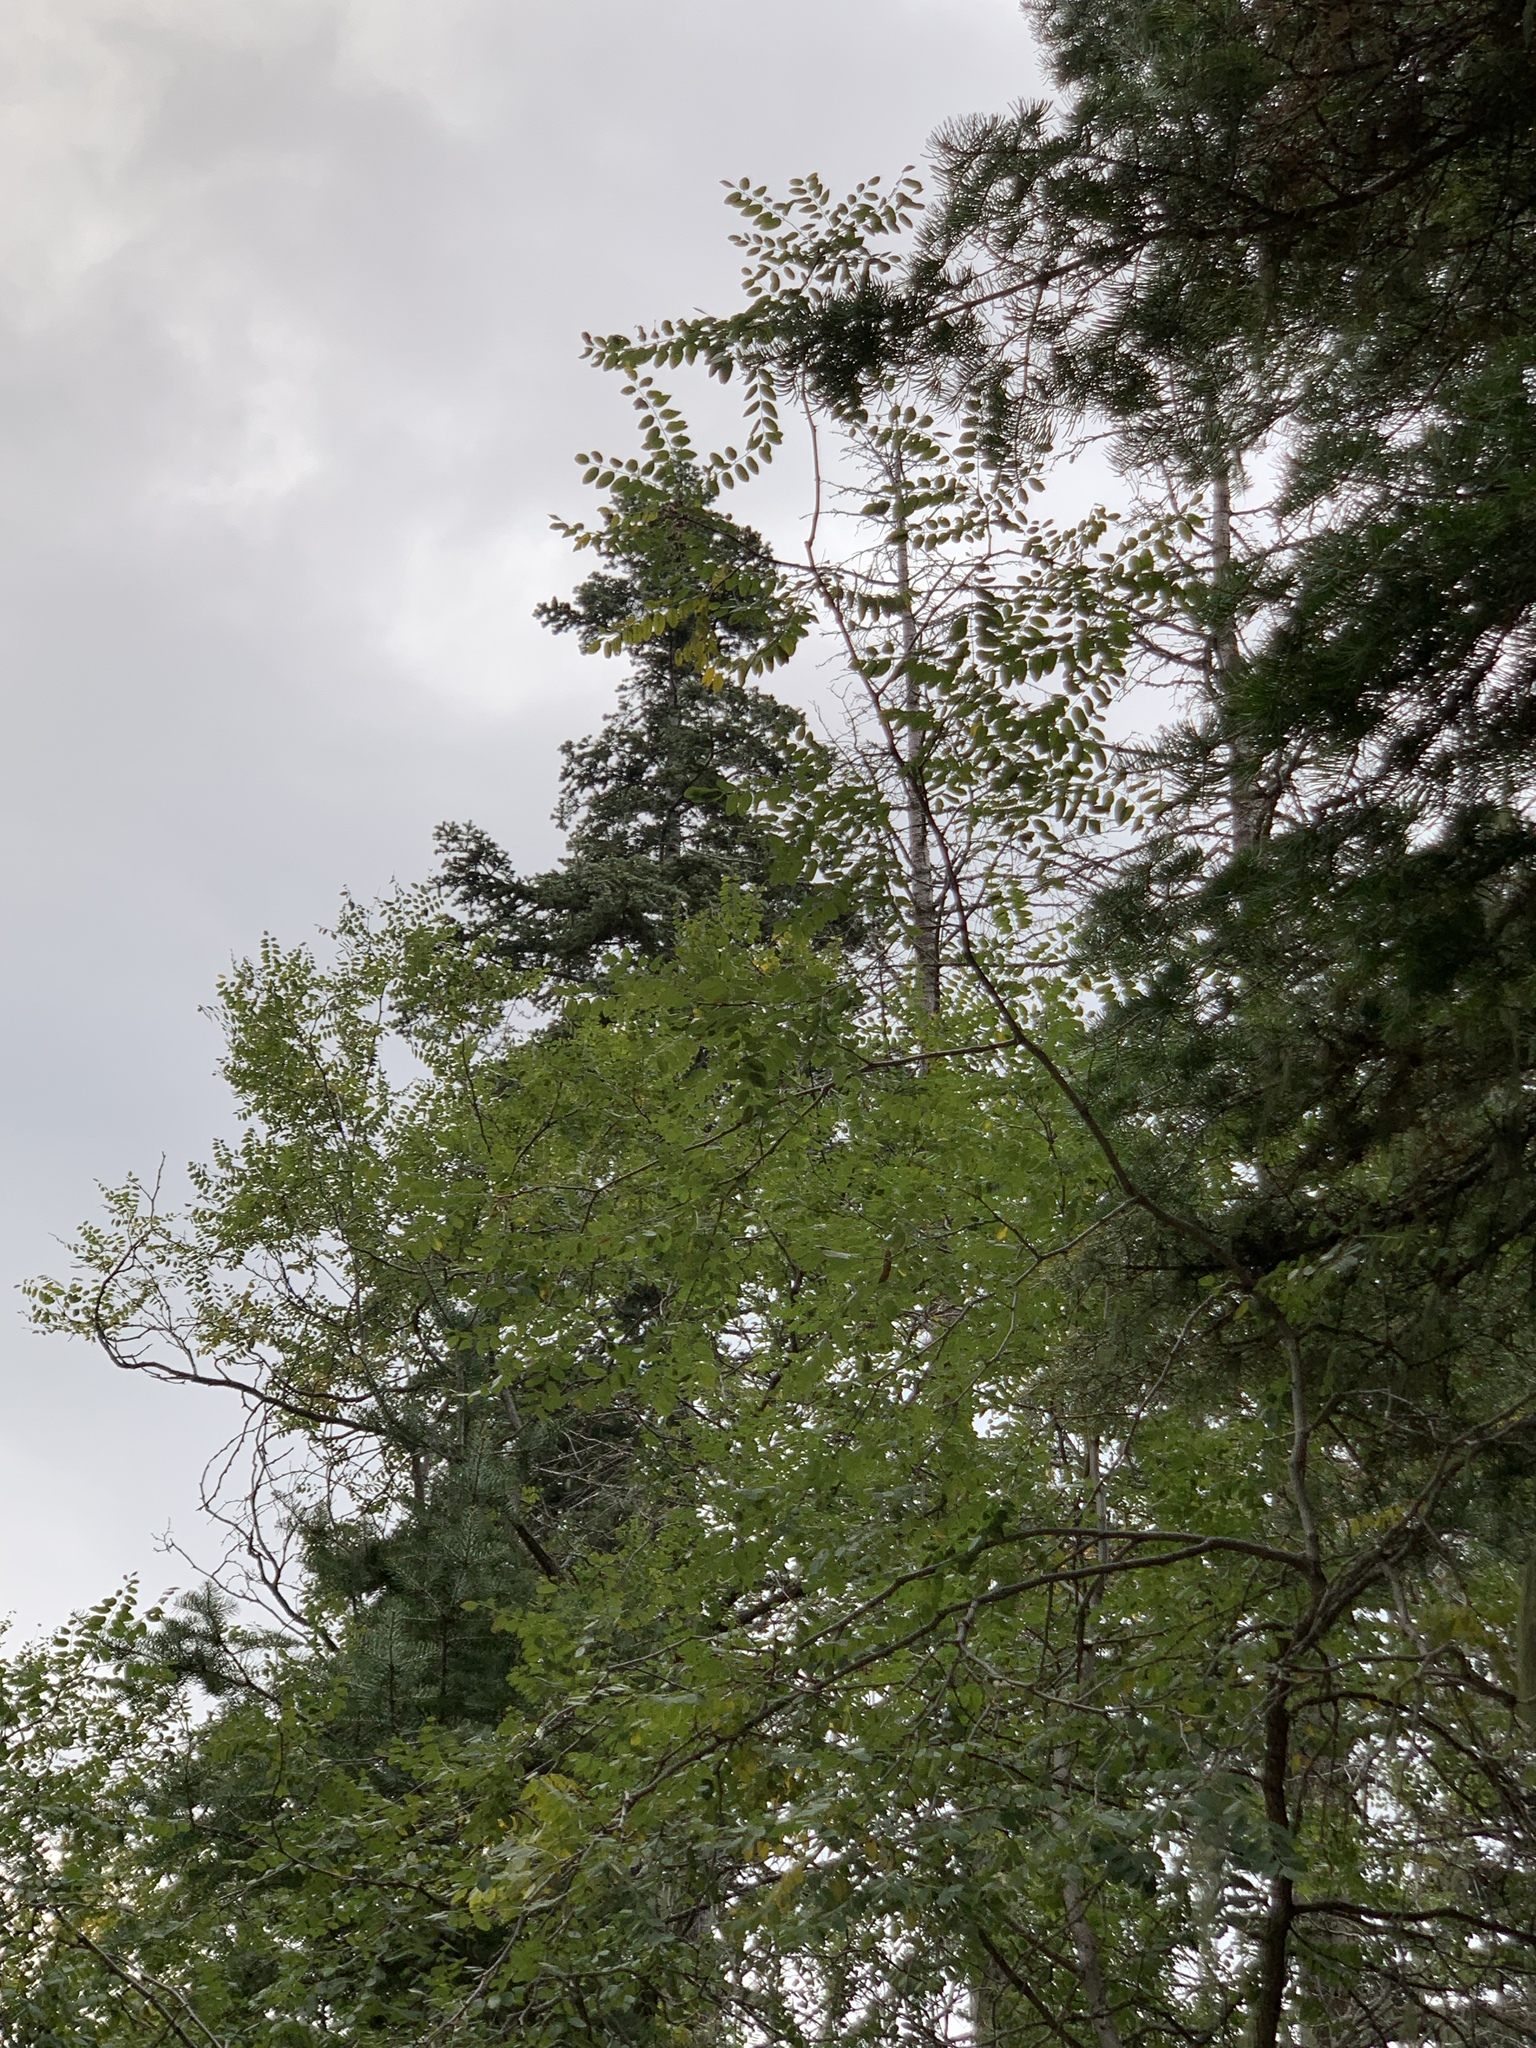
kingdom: Plantae
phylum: Tracheophyta
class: Magnoliopsida
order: Fabales
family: Fabaceae
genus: Robinia
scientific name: Robinia neomexicana
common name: New mexico locust
